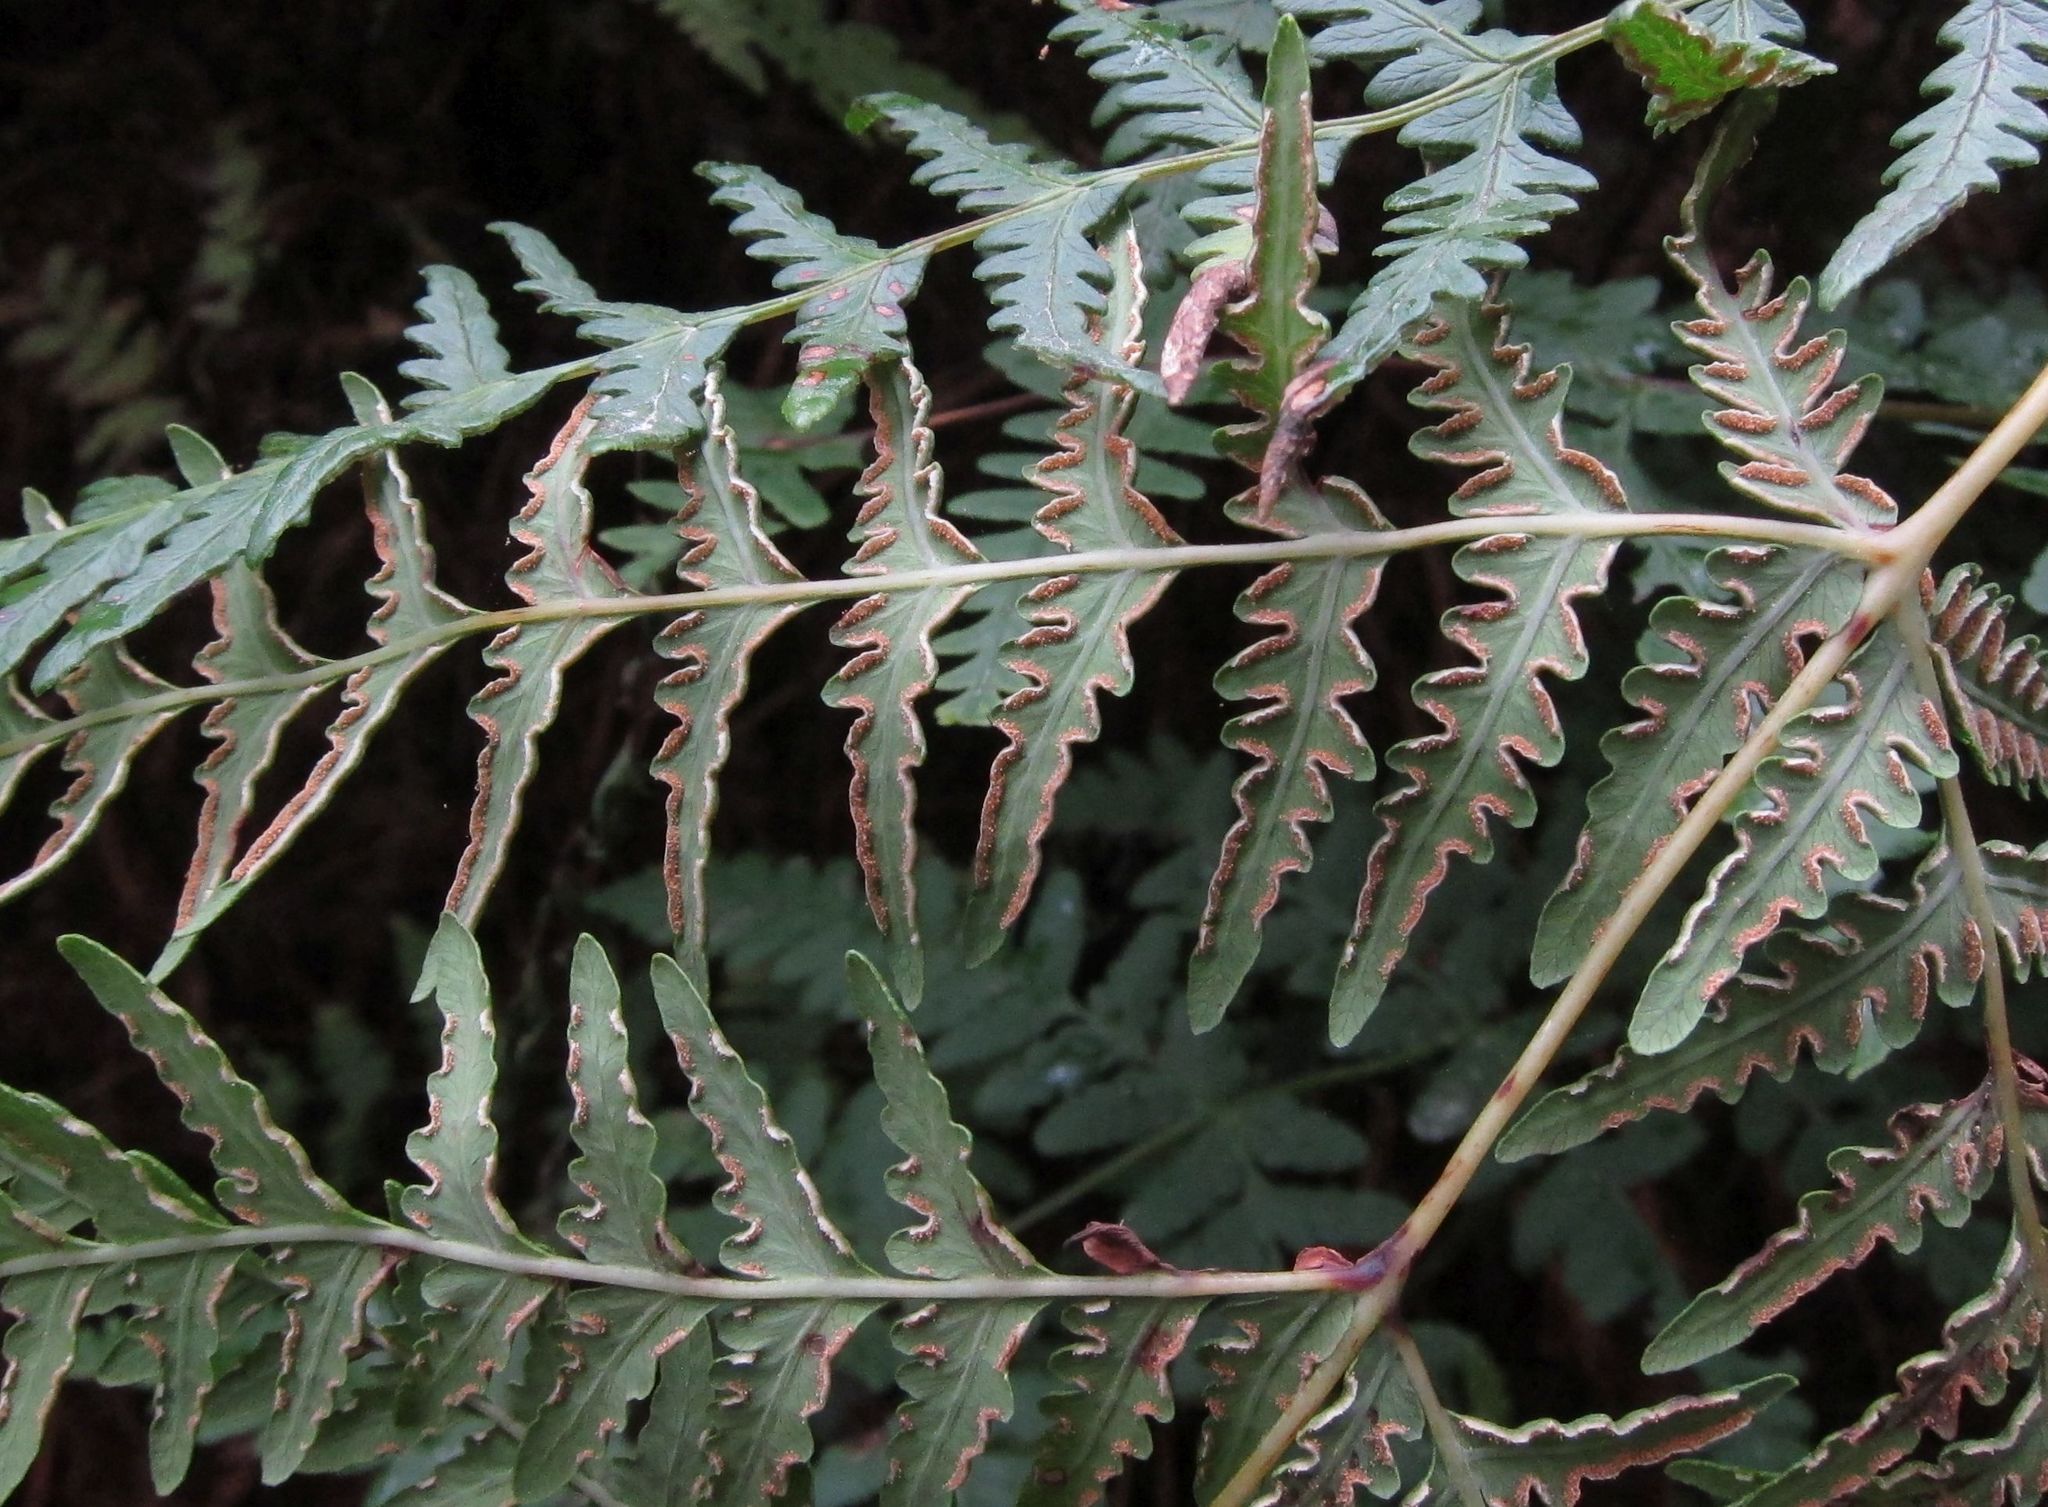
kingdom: Plantae
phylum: Tracheophyta
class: Polypodiopsida
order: Polypodiales
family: Dennstaedtiaceae
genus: Histiopteris
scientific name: Histiopteris incisa
